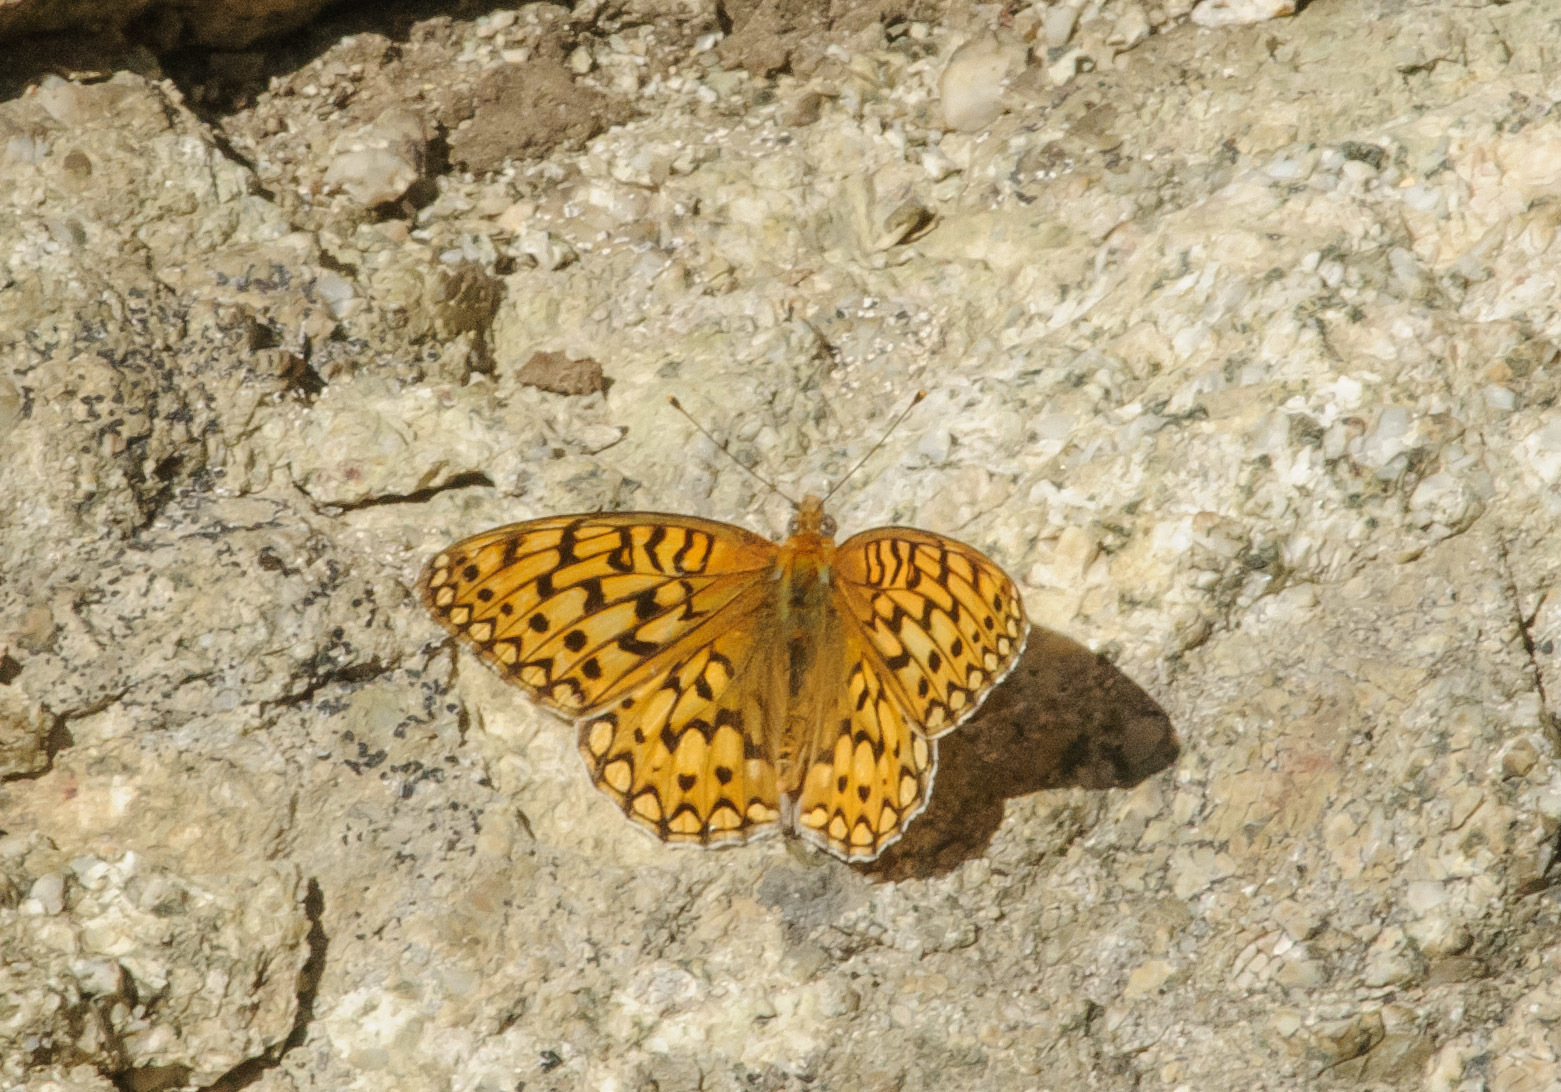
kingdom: Animalia
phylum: Arthropoda
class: Insecta
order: Lepidoptera
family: Nymphalidae
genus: Speyeria
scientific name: Speyeria callippe
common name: Callippe fritillary
